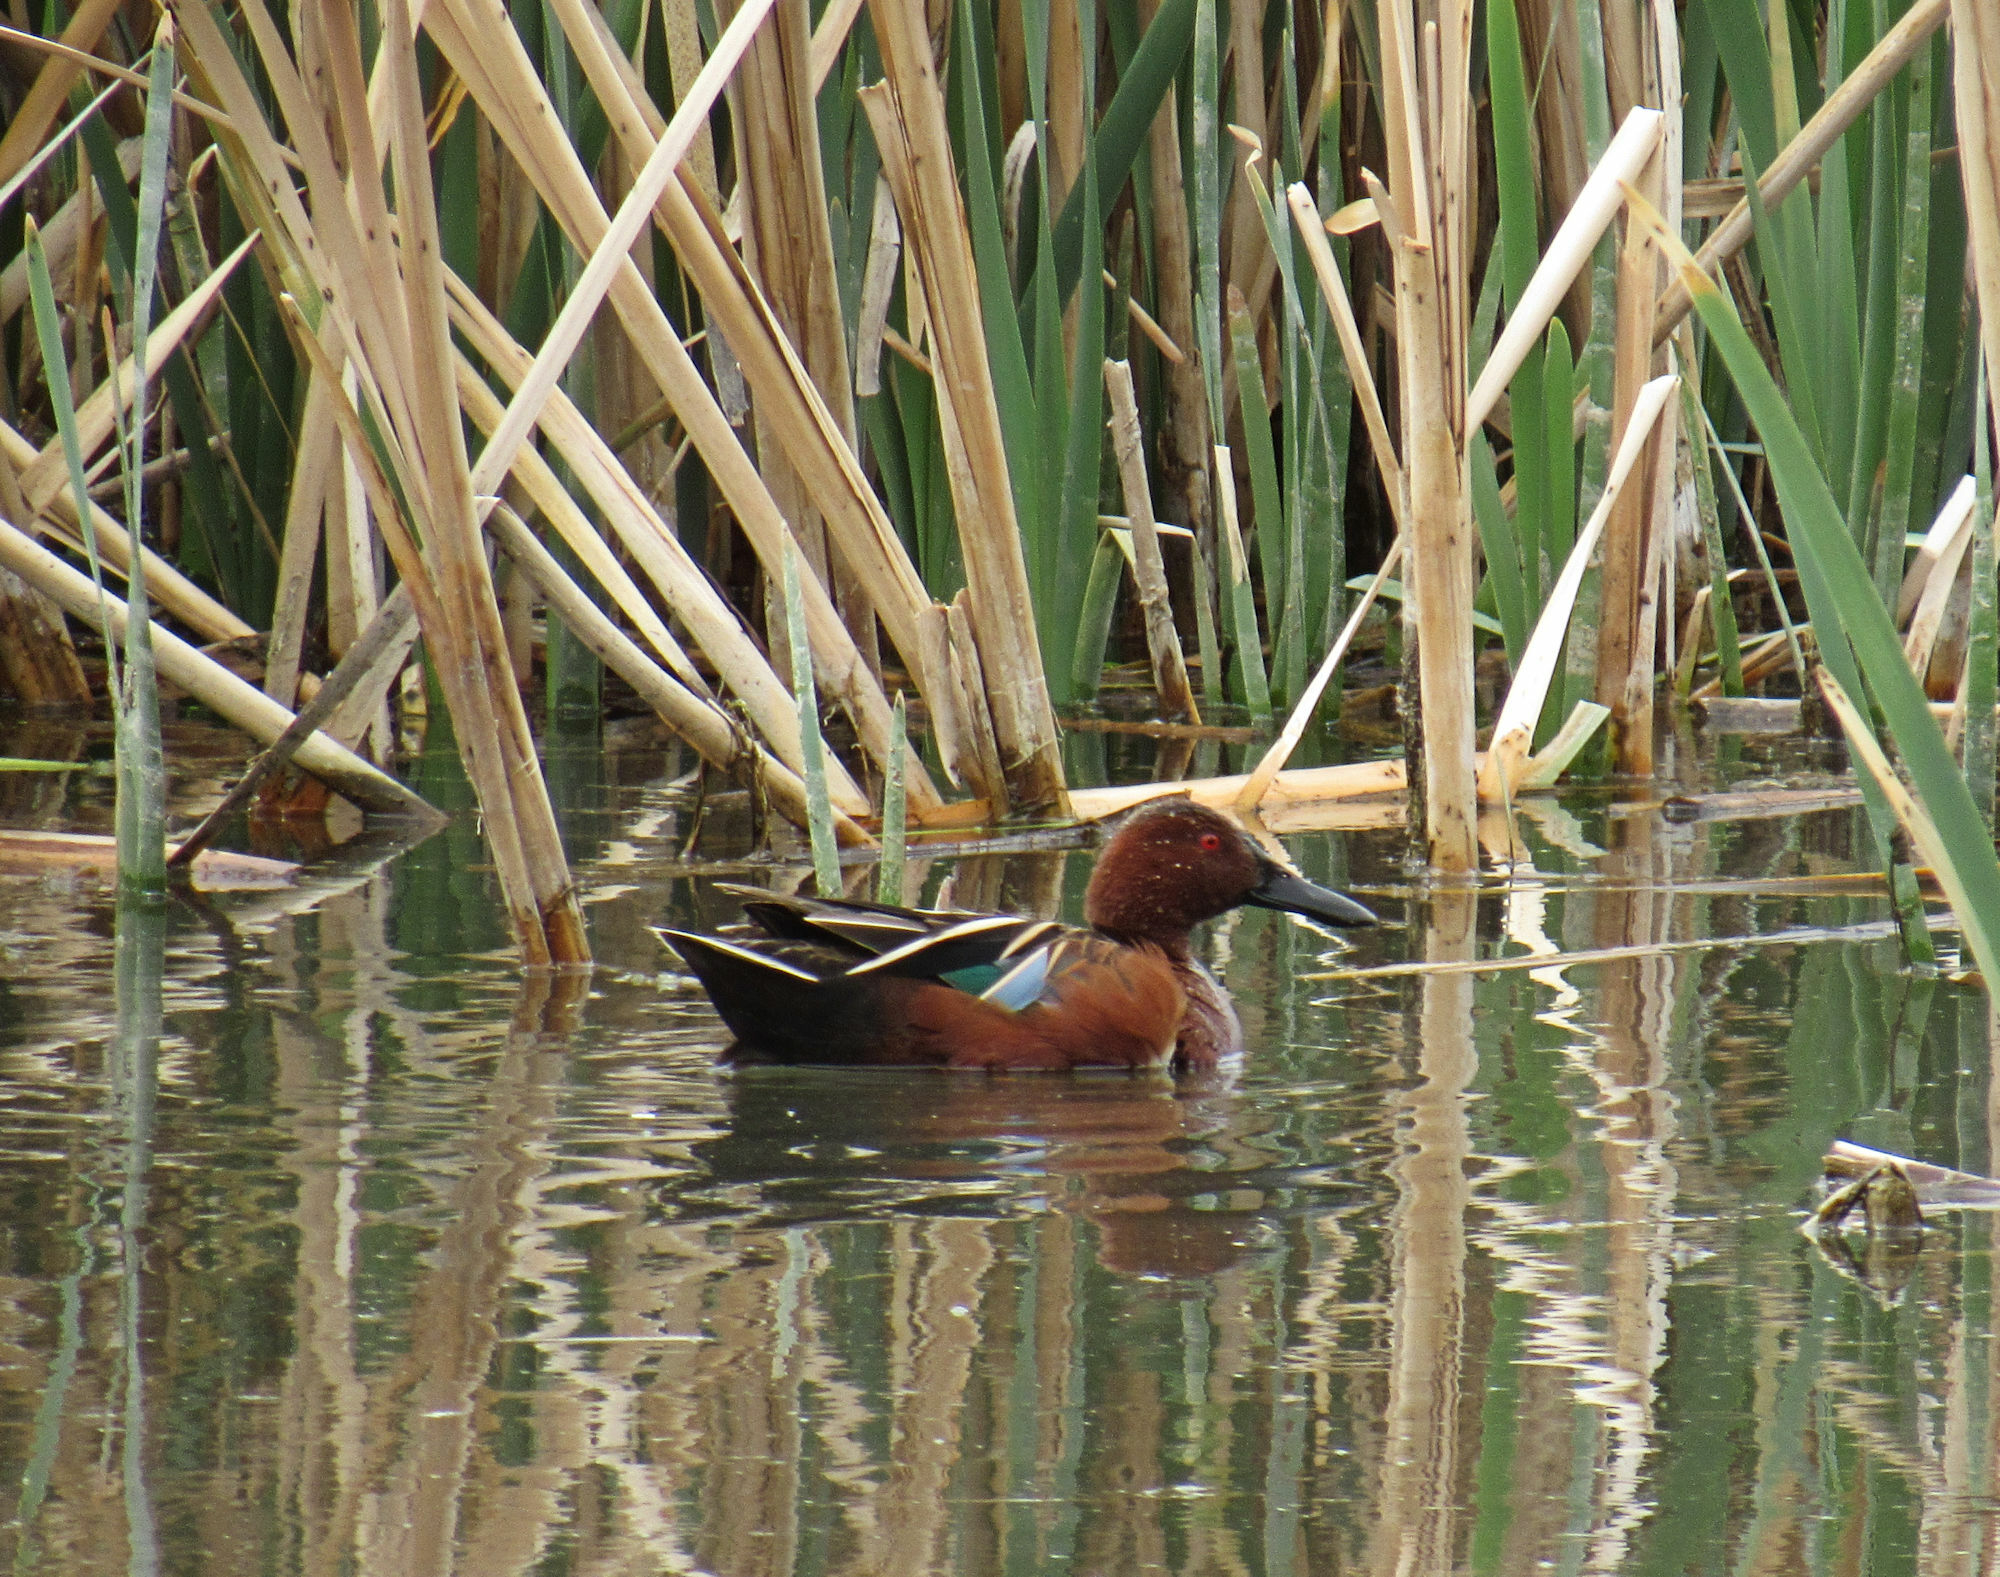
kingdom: Animalia
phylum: Chordata
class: Aves
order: Anseriformes
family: Anatidae
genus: Spatula
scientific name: Spatula cyanoptera
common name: Cinnamon teal
